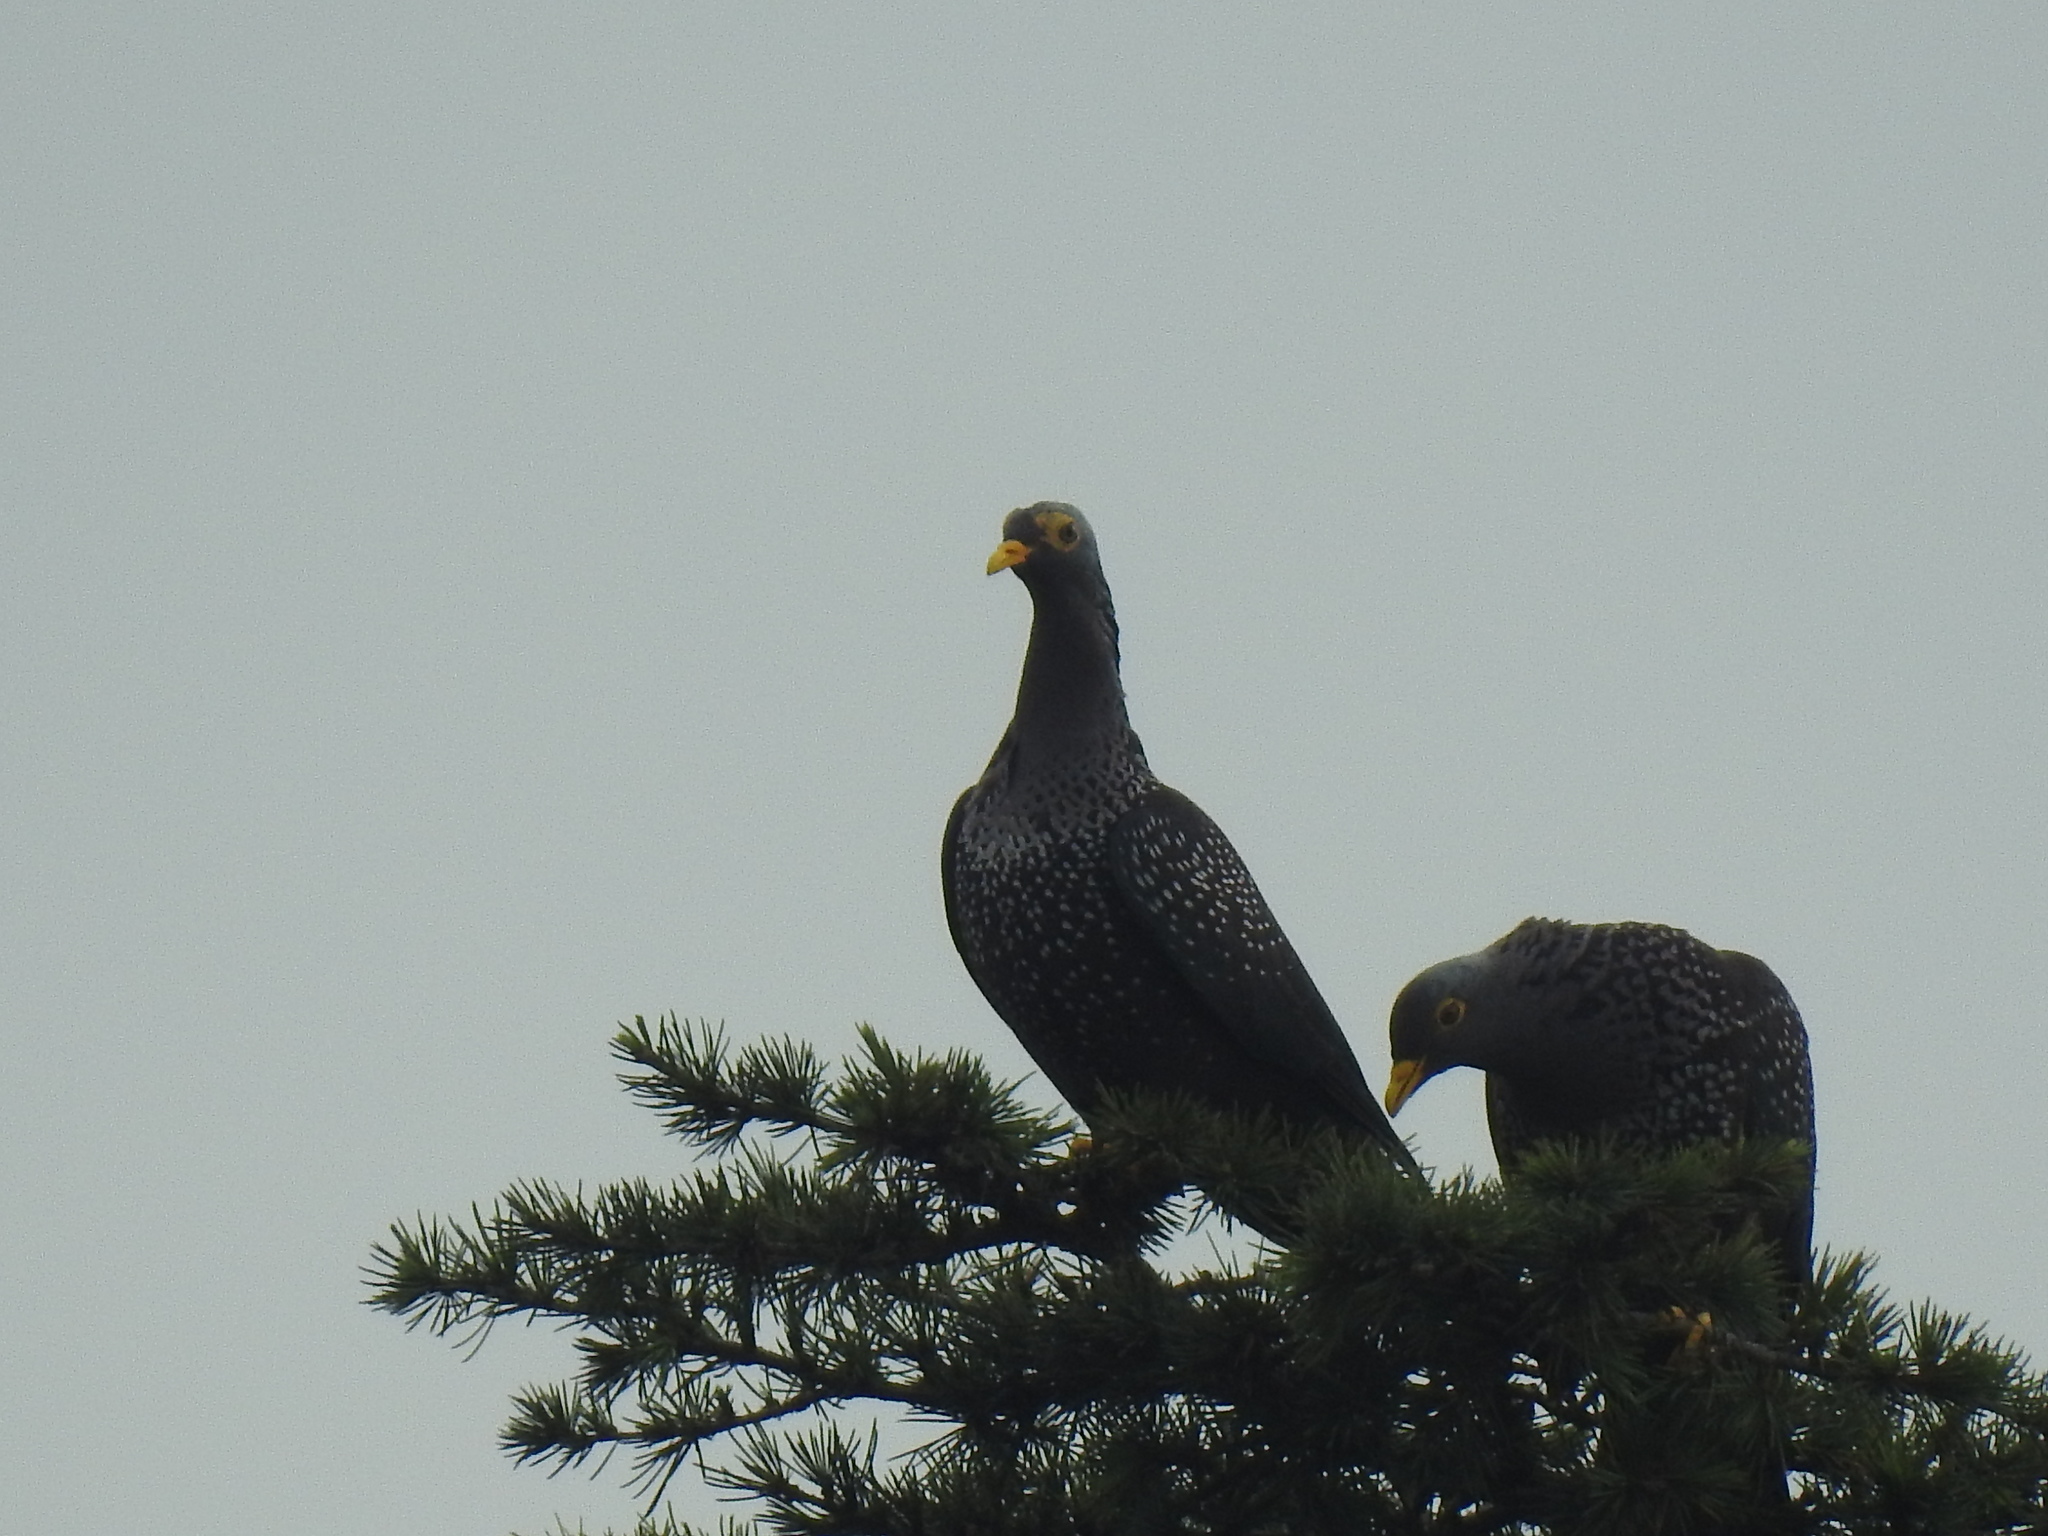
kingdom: Animalia
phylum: Chordata
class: Aves
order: Columbiformes
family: Columbidae
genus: Columba
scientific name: Columba arquatrix
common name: African olive pigeon
